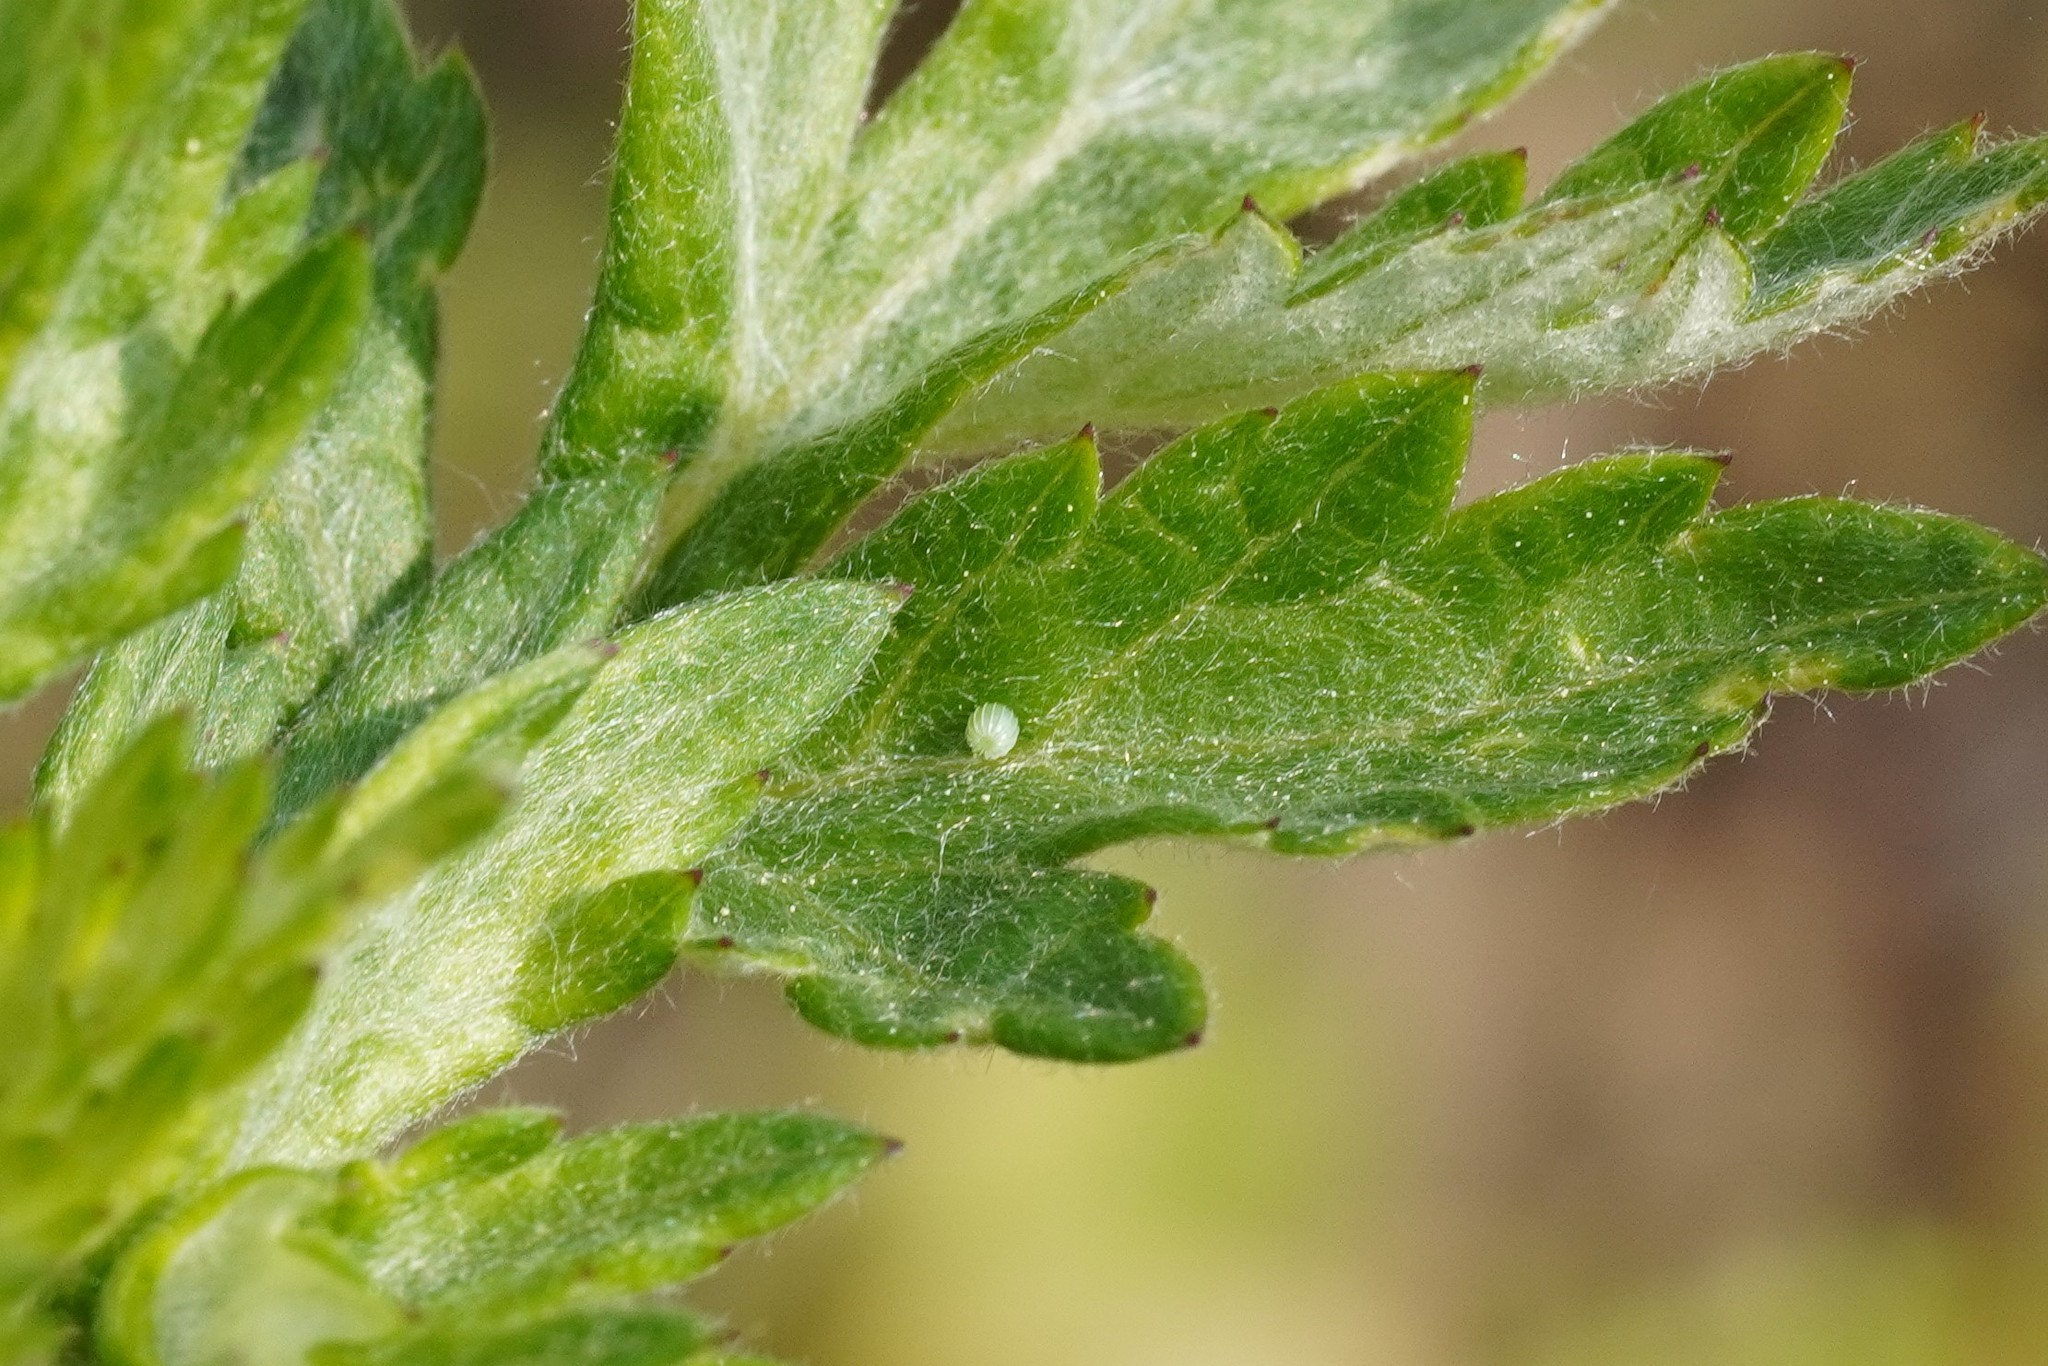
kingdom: Animalia
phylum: Arthropoda
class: Insecta
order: Lepidoptera
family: Nymphalidae
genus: Vanessa
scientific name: Vanessa cardui
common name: Painted lady
